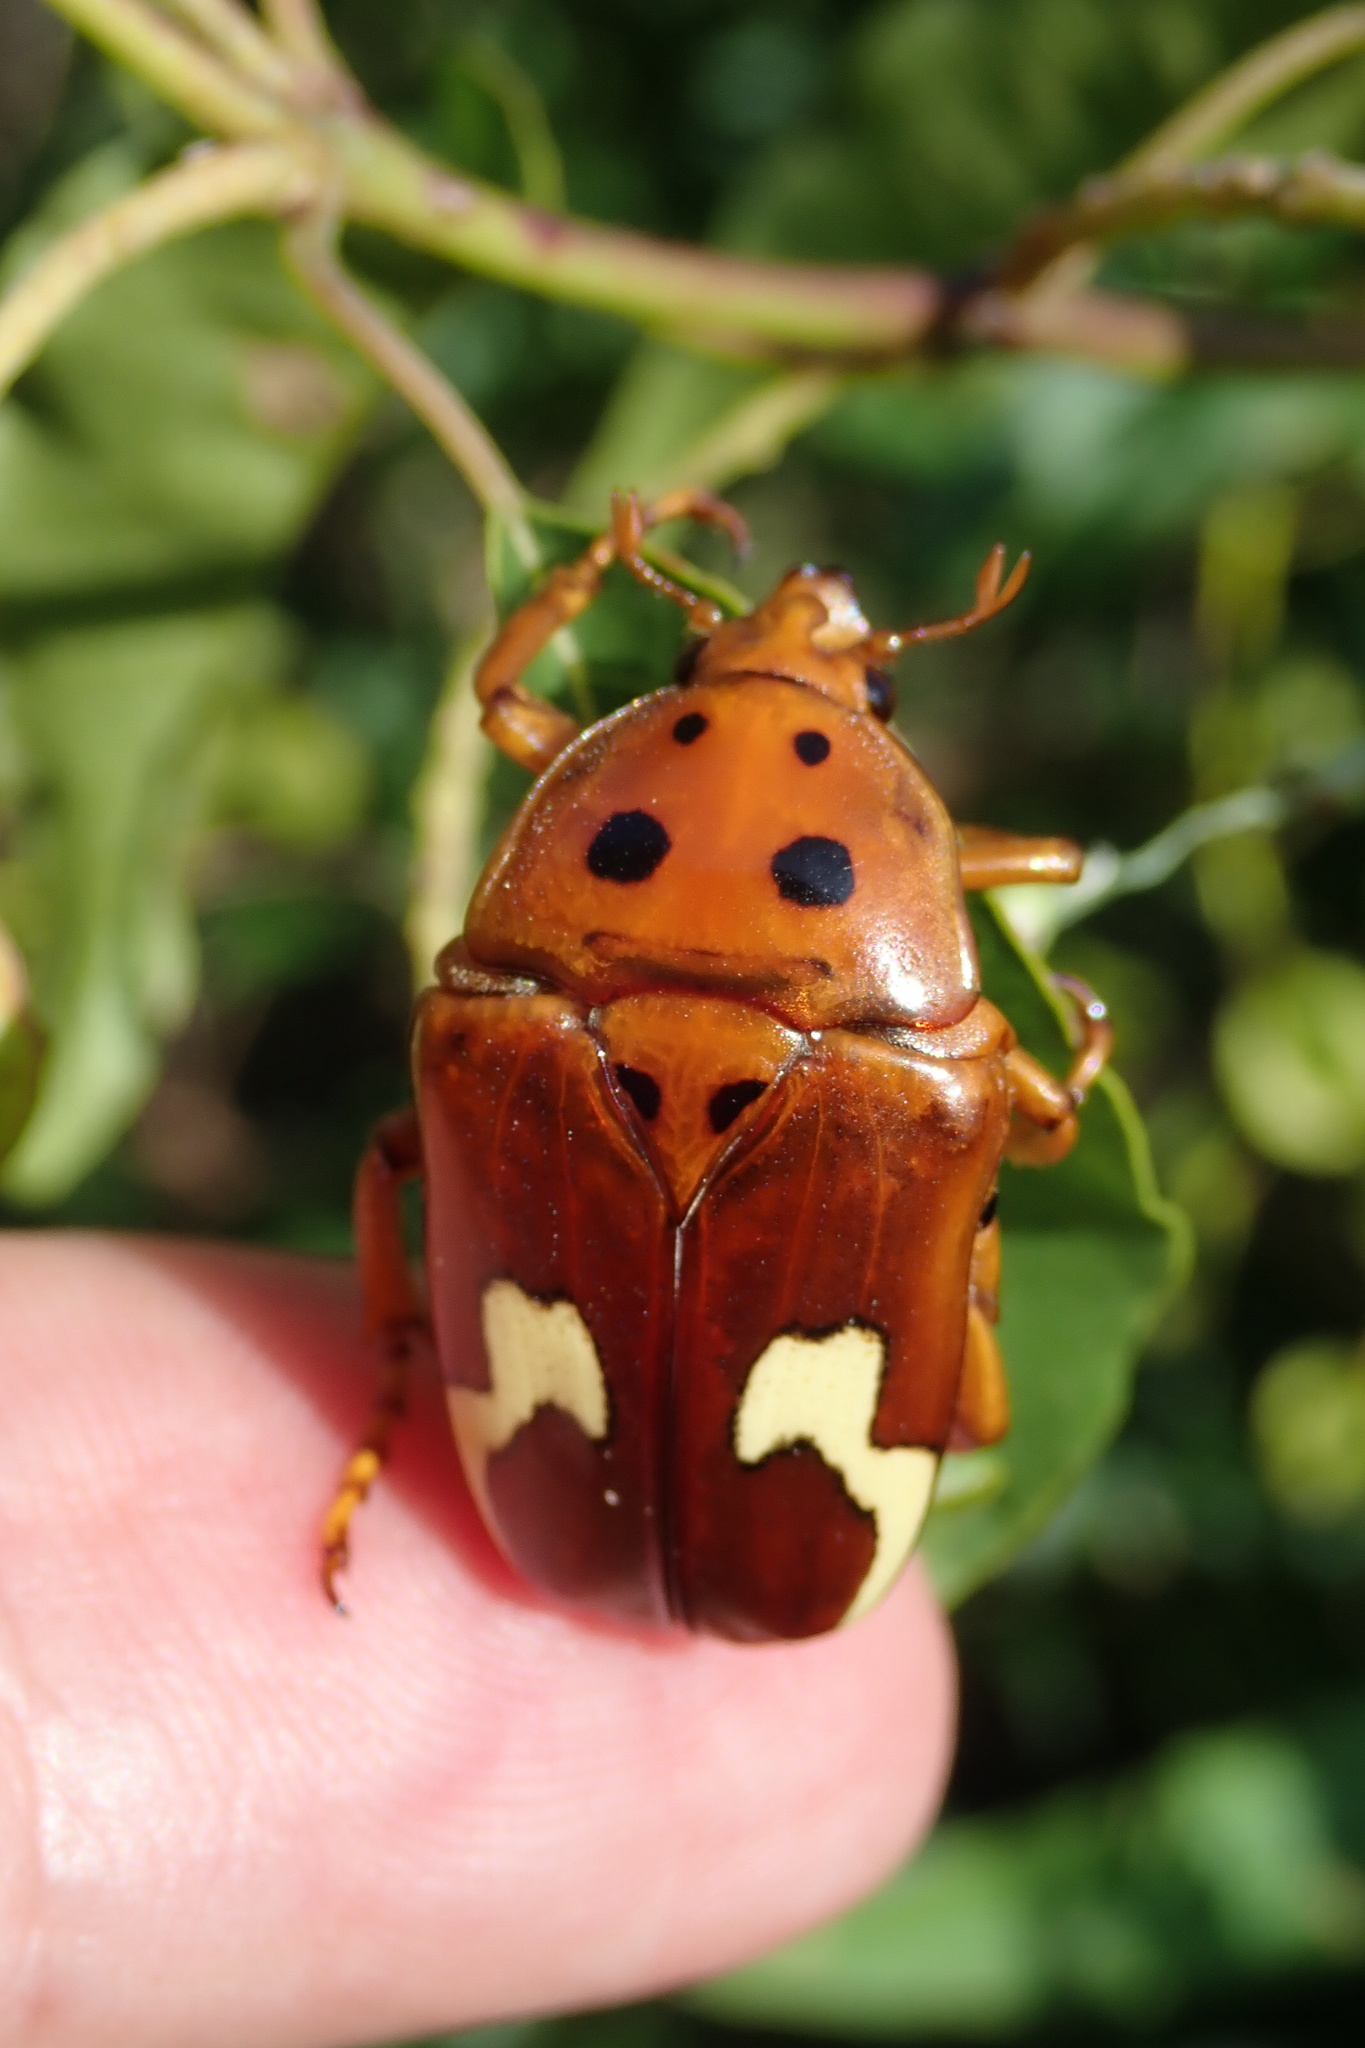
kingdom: Animalia
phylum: Arthropoda
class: Insecta
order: Coleoptera
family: Scarabaeidae
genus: Anisorrhina
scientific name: Anisorrhina flavomaculata
